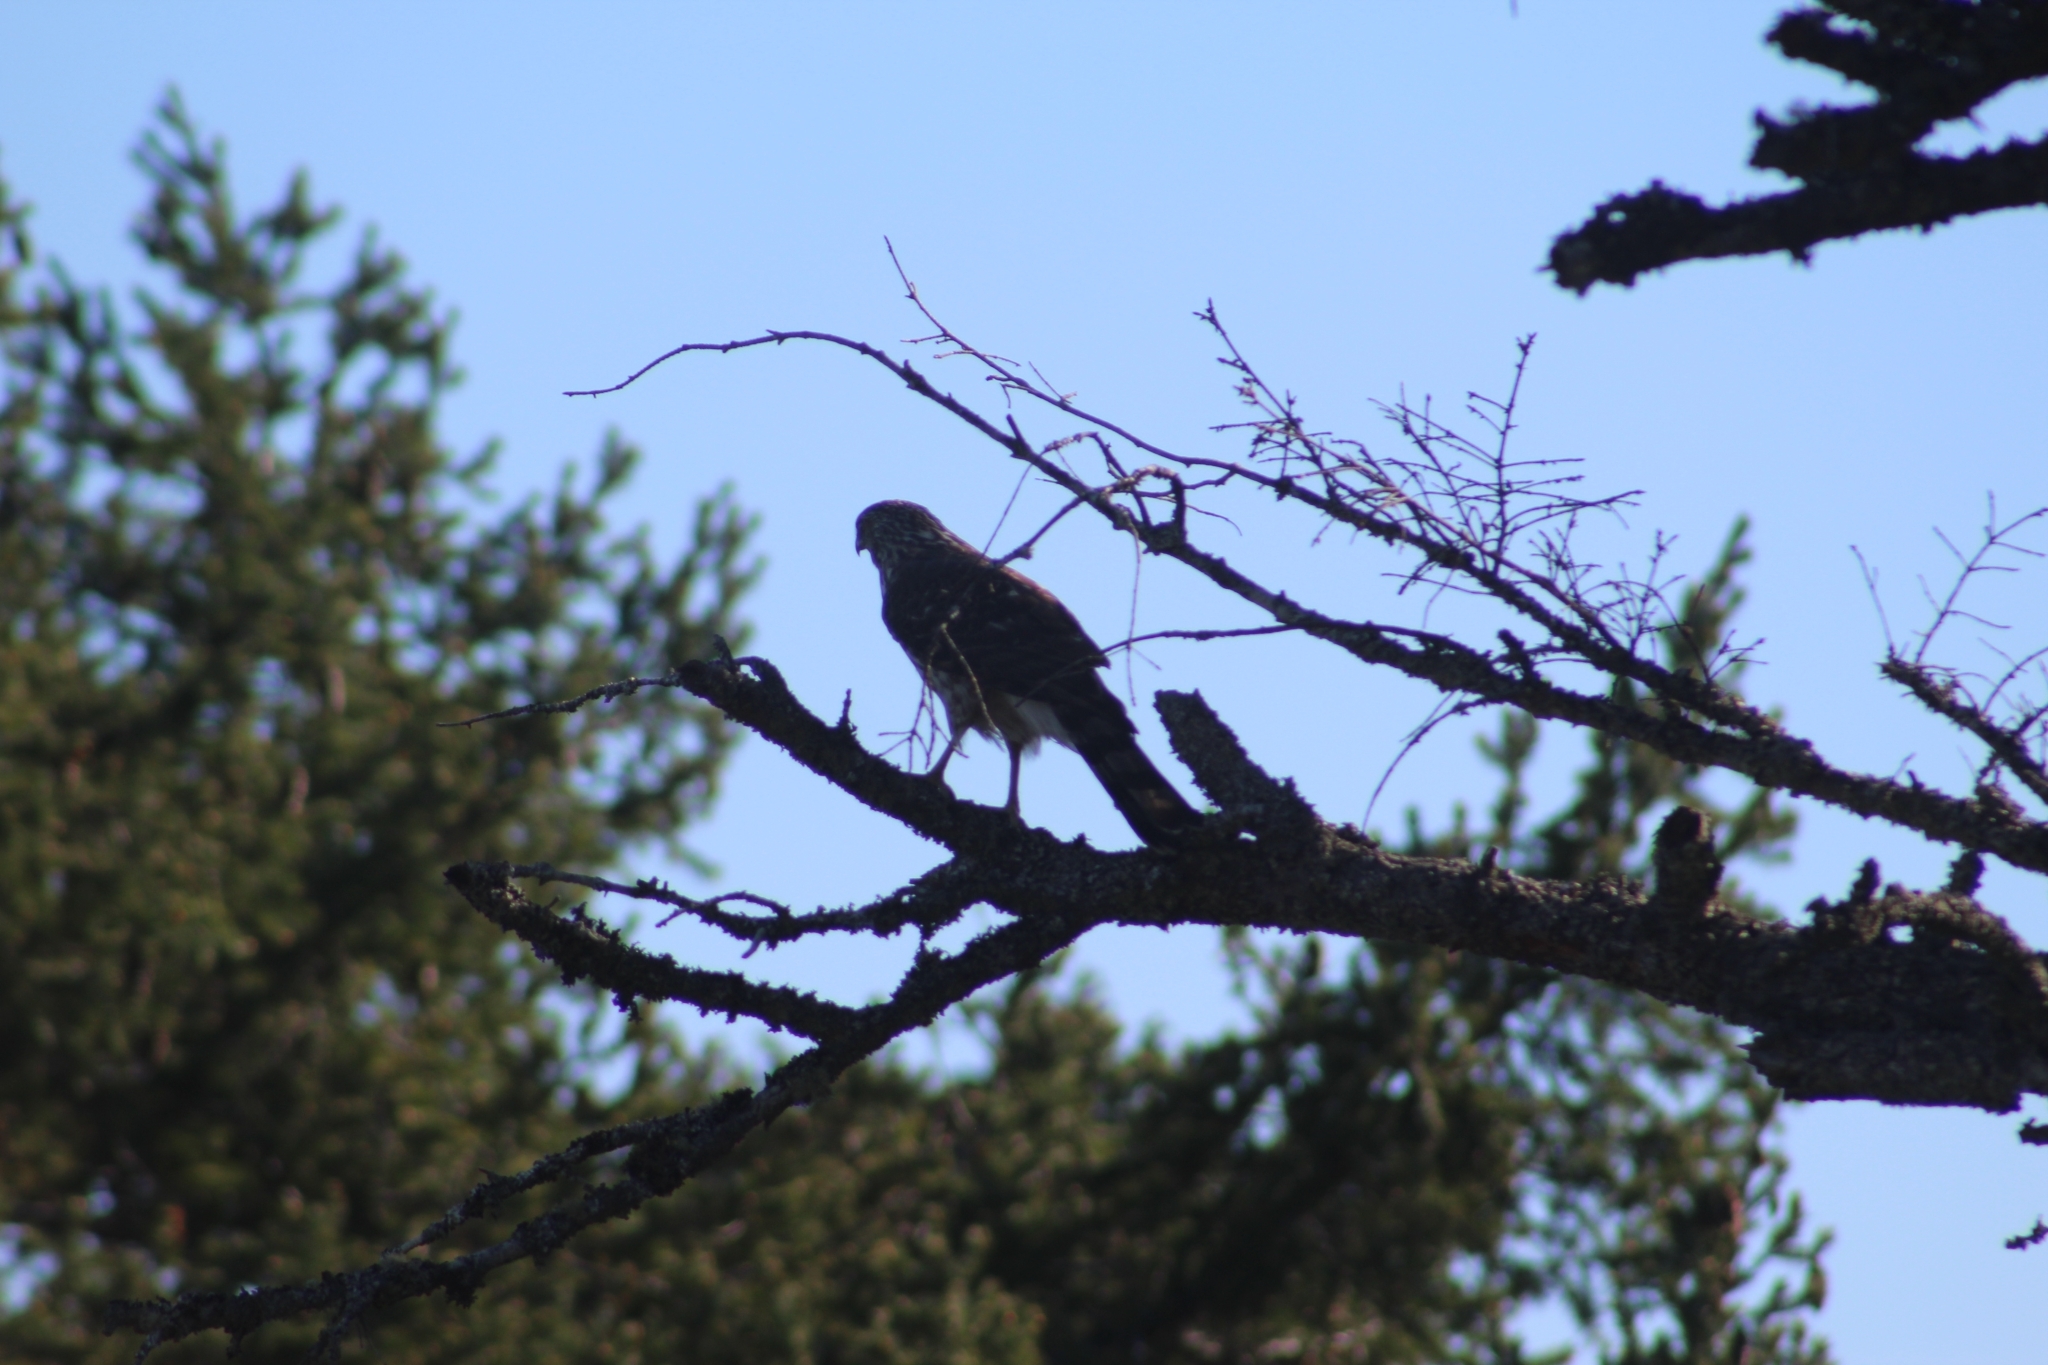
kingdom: Animalia
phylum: Chordata
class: Aves
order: Accipitriformes
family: Accipitridae
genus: Accipiter
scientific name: Accipiter cooperii
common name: Cooper's hawk
